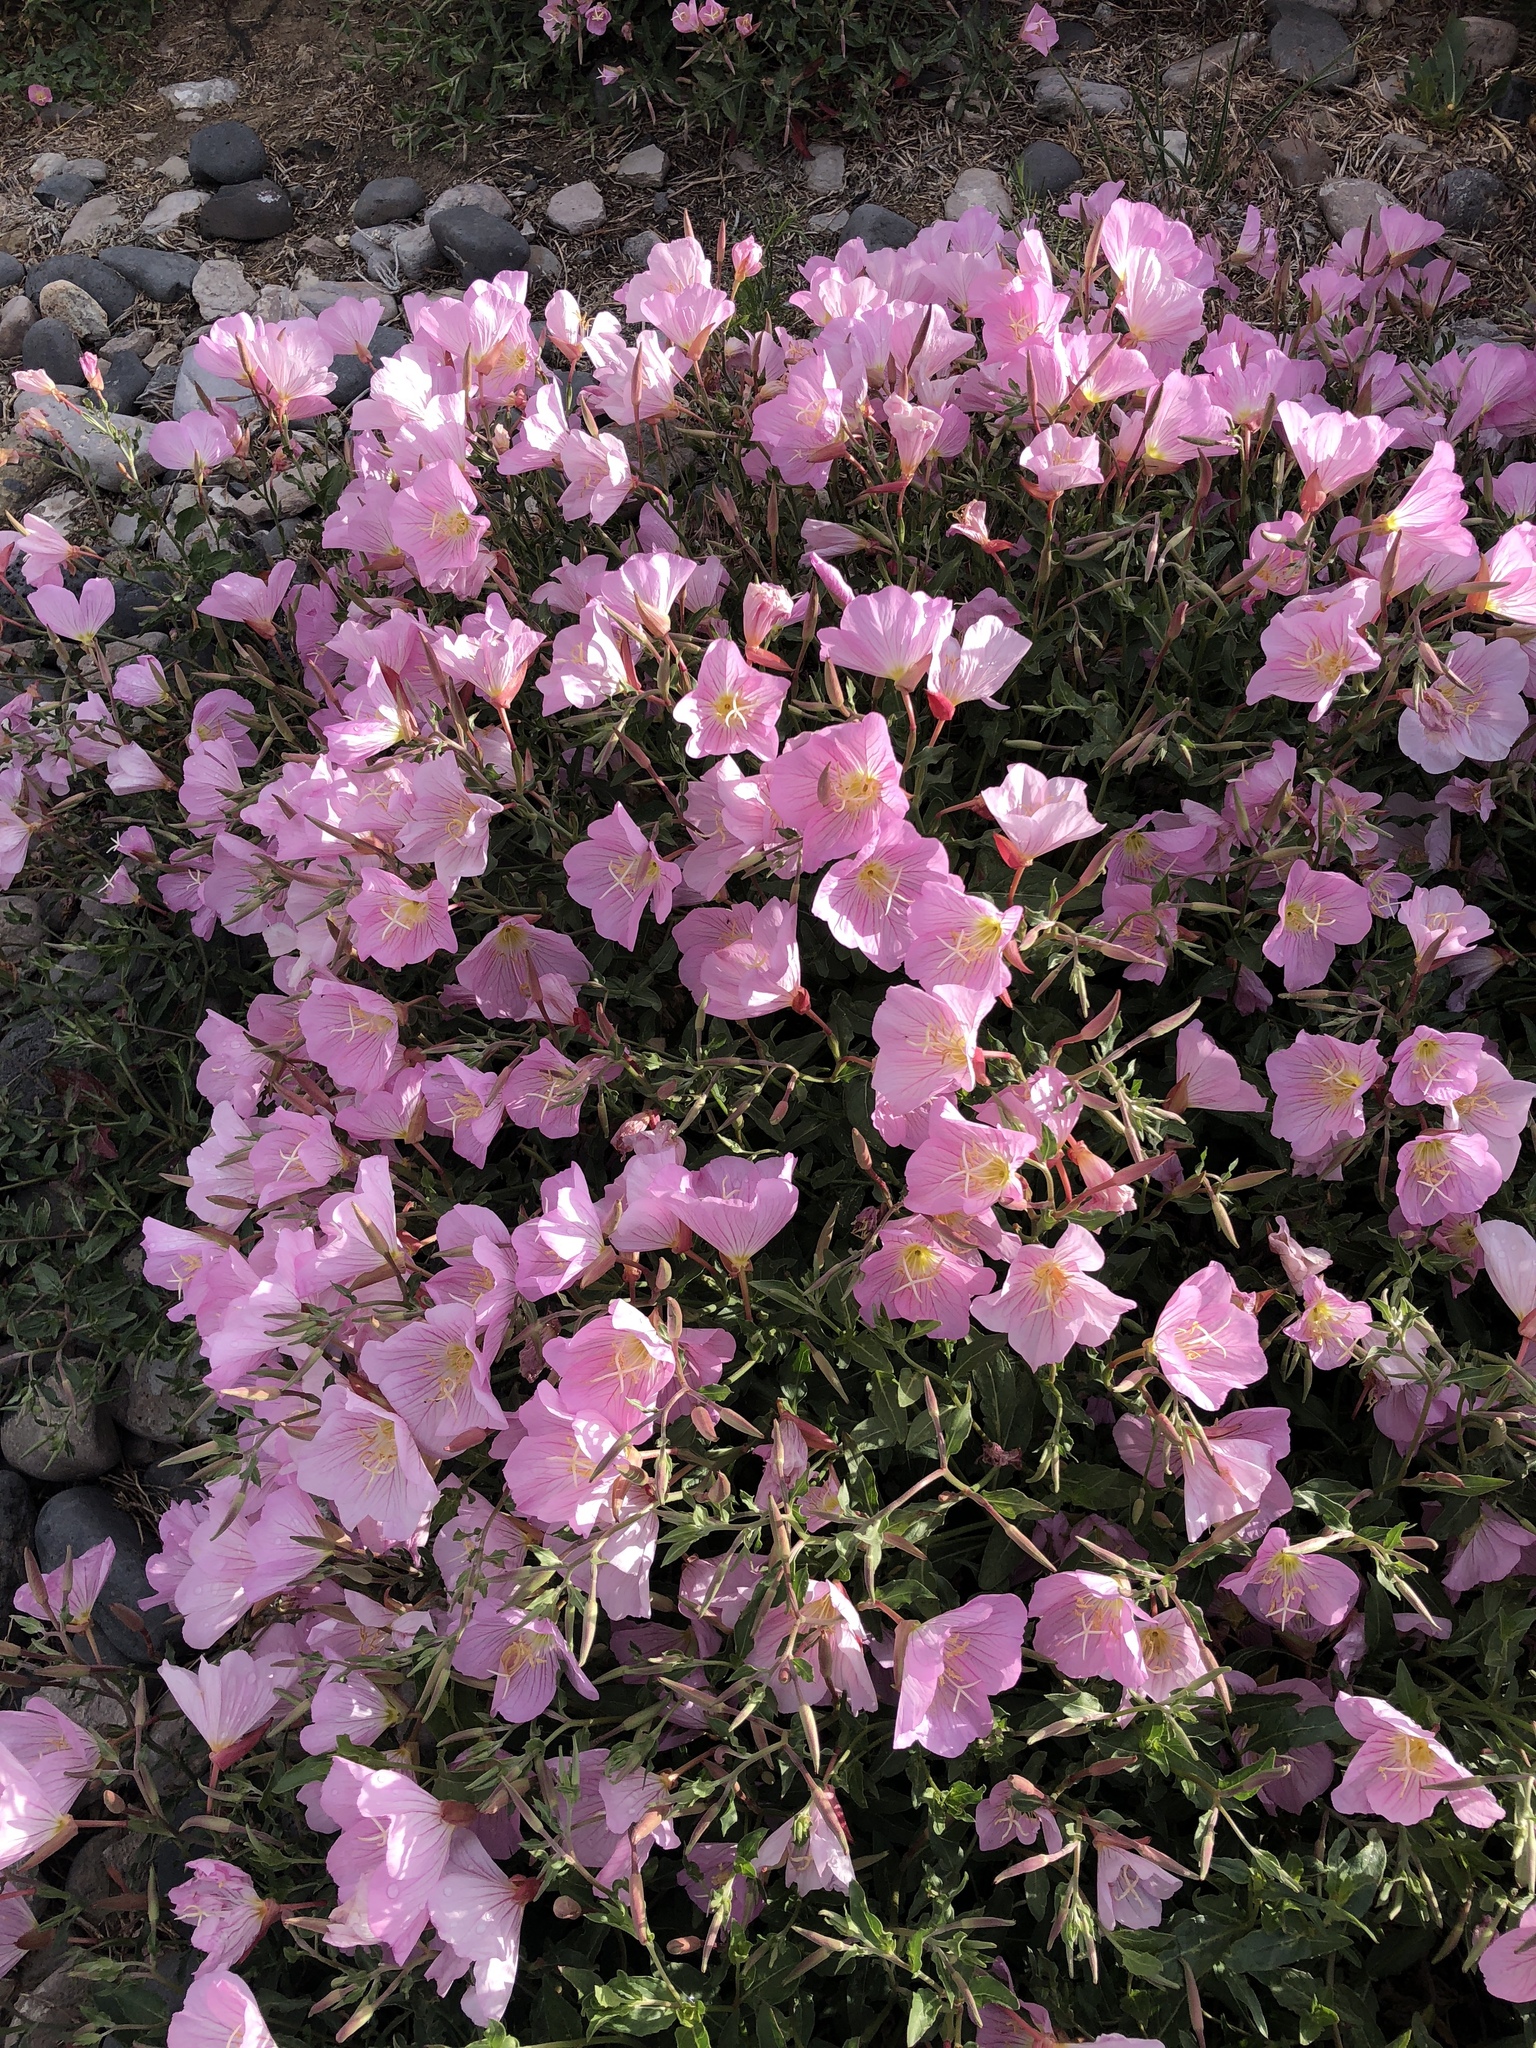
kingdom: Plantae
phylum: Tracheophyta
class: Magnoliopsida
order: Solanales
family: Convolvulaceae
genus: Convolvulus
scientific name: Convolvulus arvensis
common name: Field bindweed
